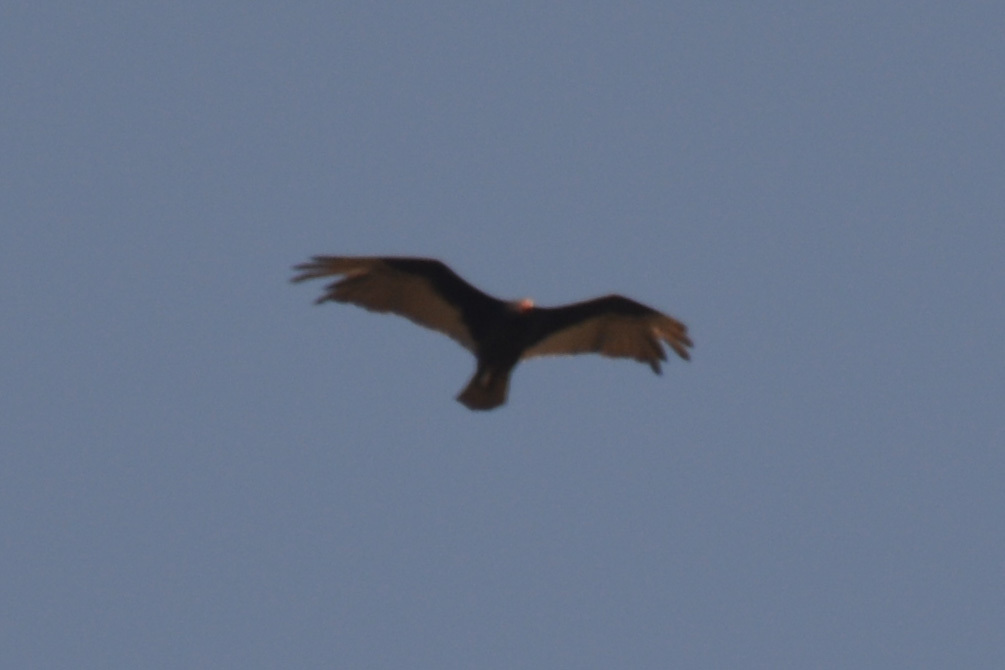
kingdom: Animalia
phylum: Chordata
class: Aves
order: Accipitriformes
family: Cathartidae
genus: Cathartes
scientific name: Cathartes aura
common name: Turkey vulture
